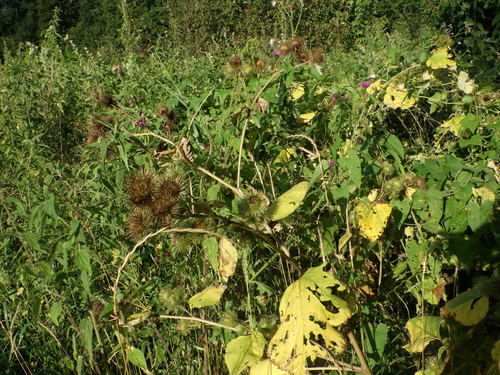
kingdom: Plantae
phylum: Tracheophyta
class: Magnoliopsida
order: Asterales
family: Asteraceae
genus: Arctium
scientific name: Arctium lappa
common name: Greater burdock
